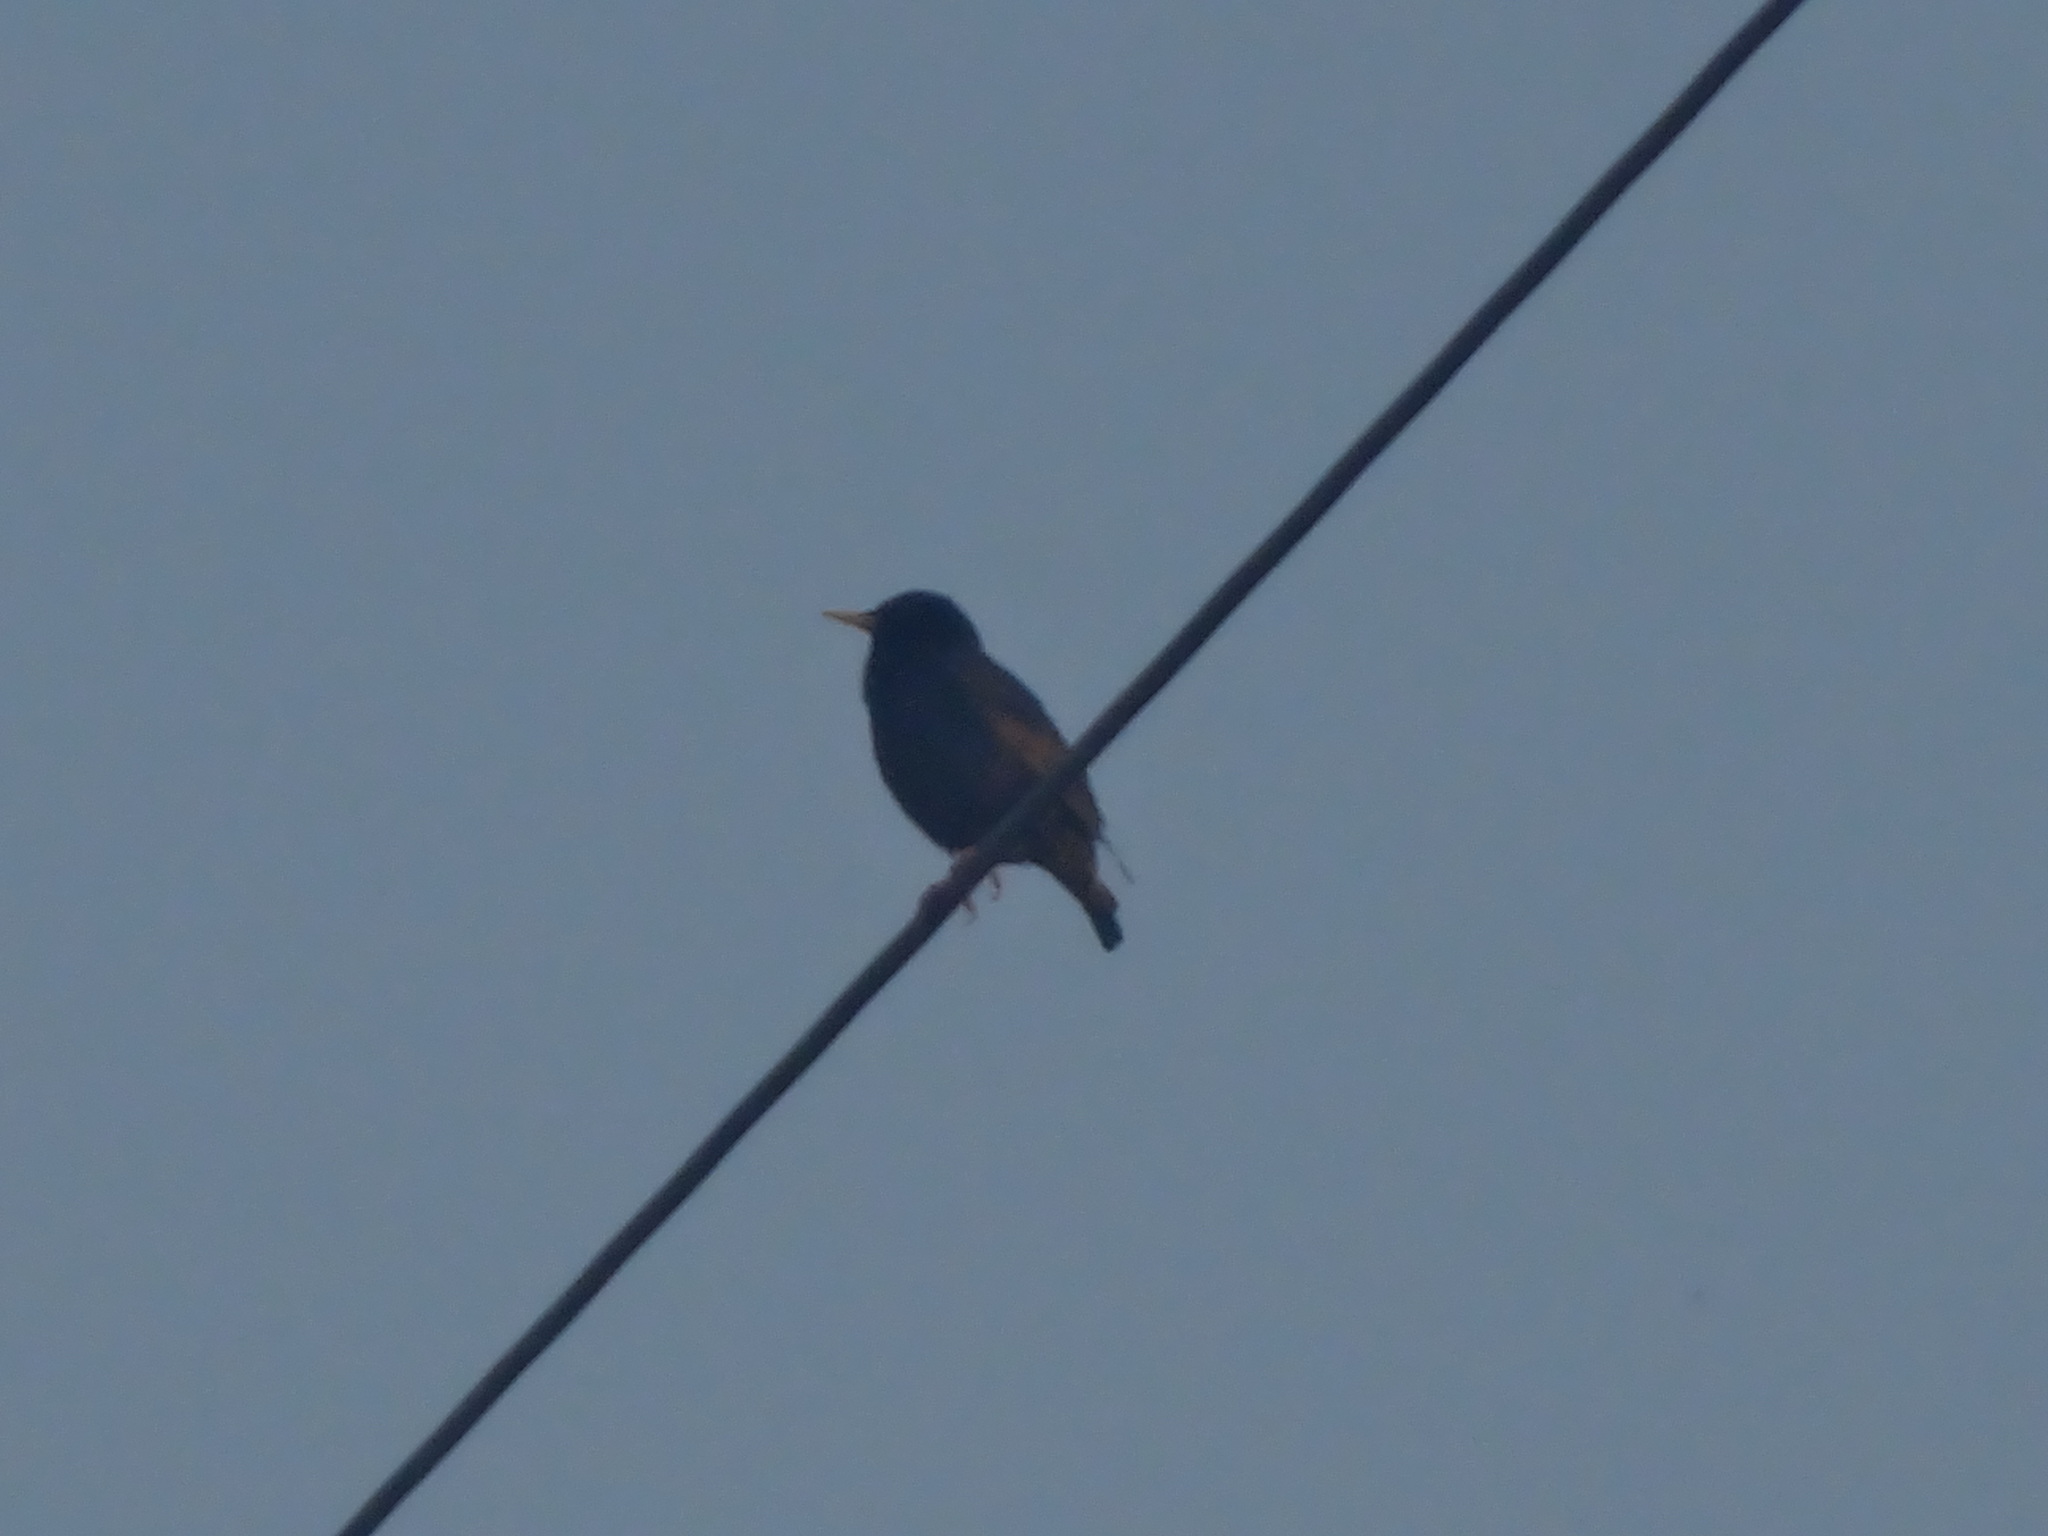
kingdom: Animalia
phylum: Chordata
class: Aves
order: Passeriformes
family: Sturnidae
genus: Sturnus
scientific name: Sturnus vulgaris
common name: Common starling
